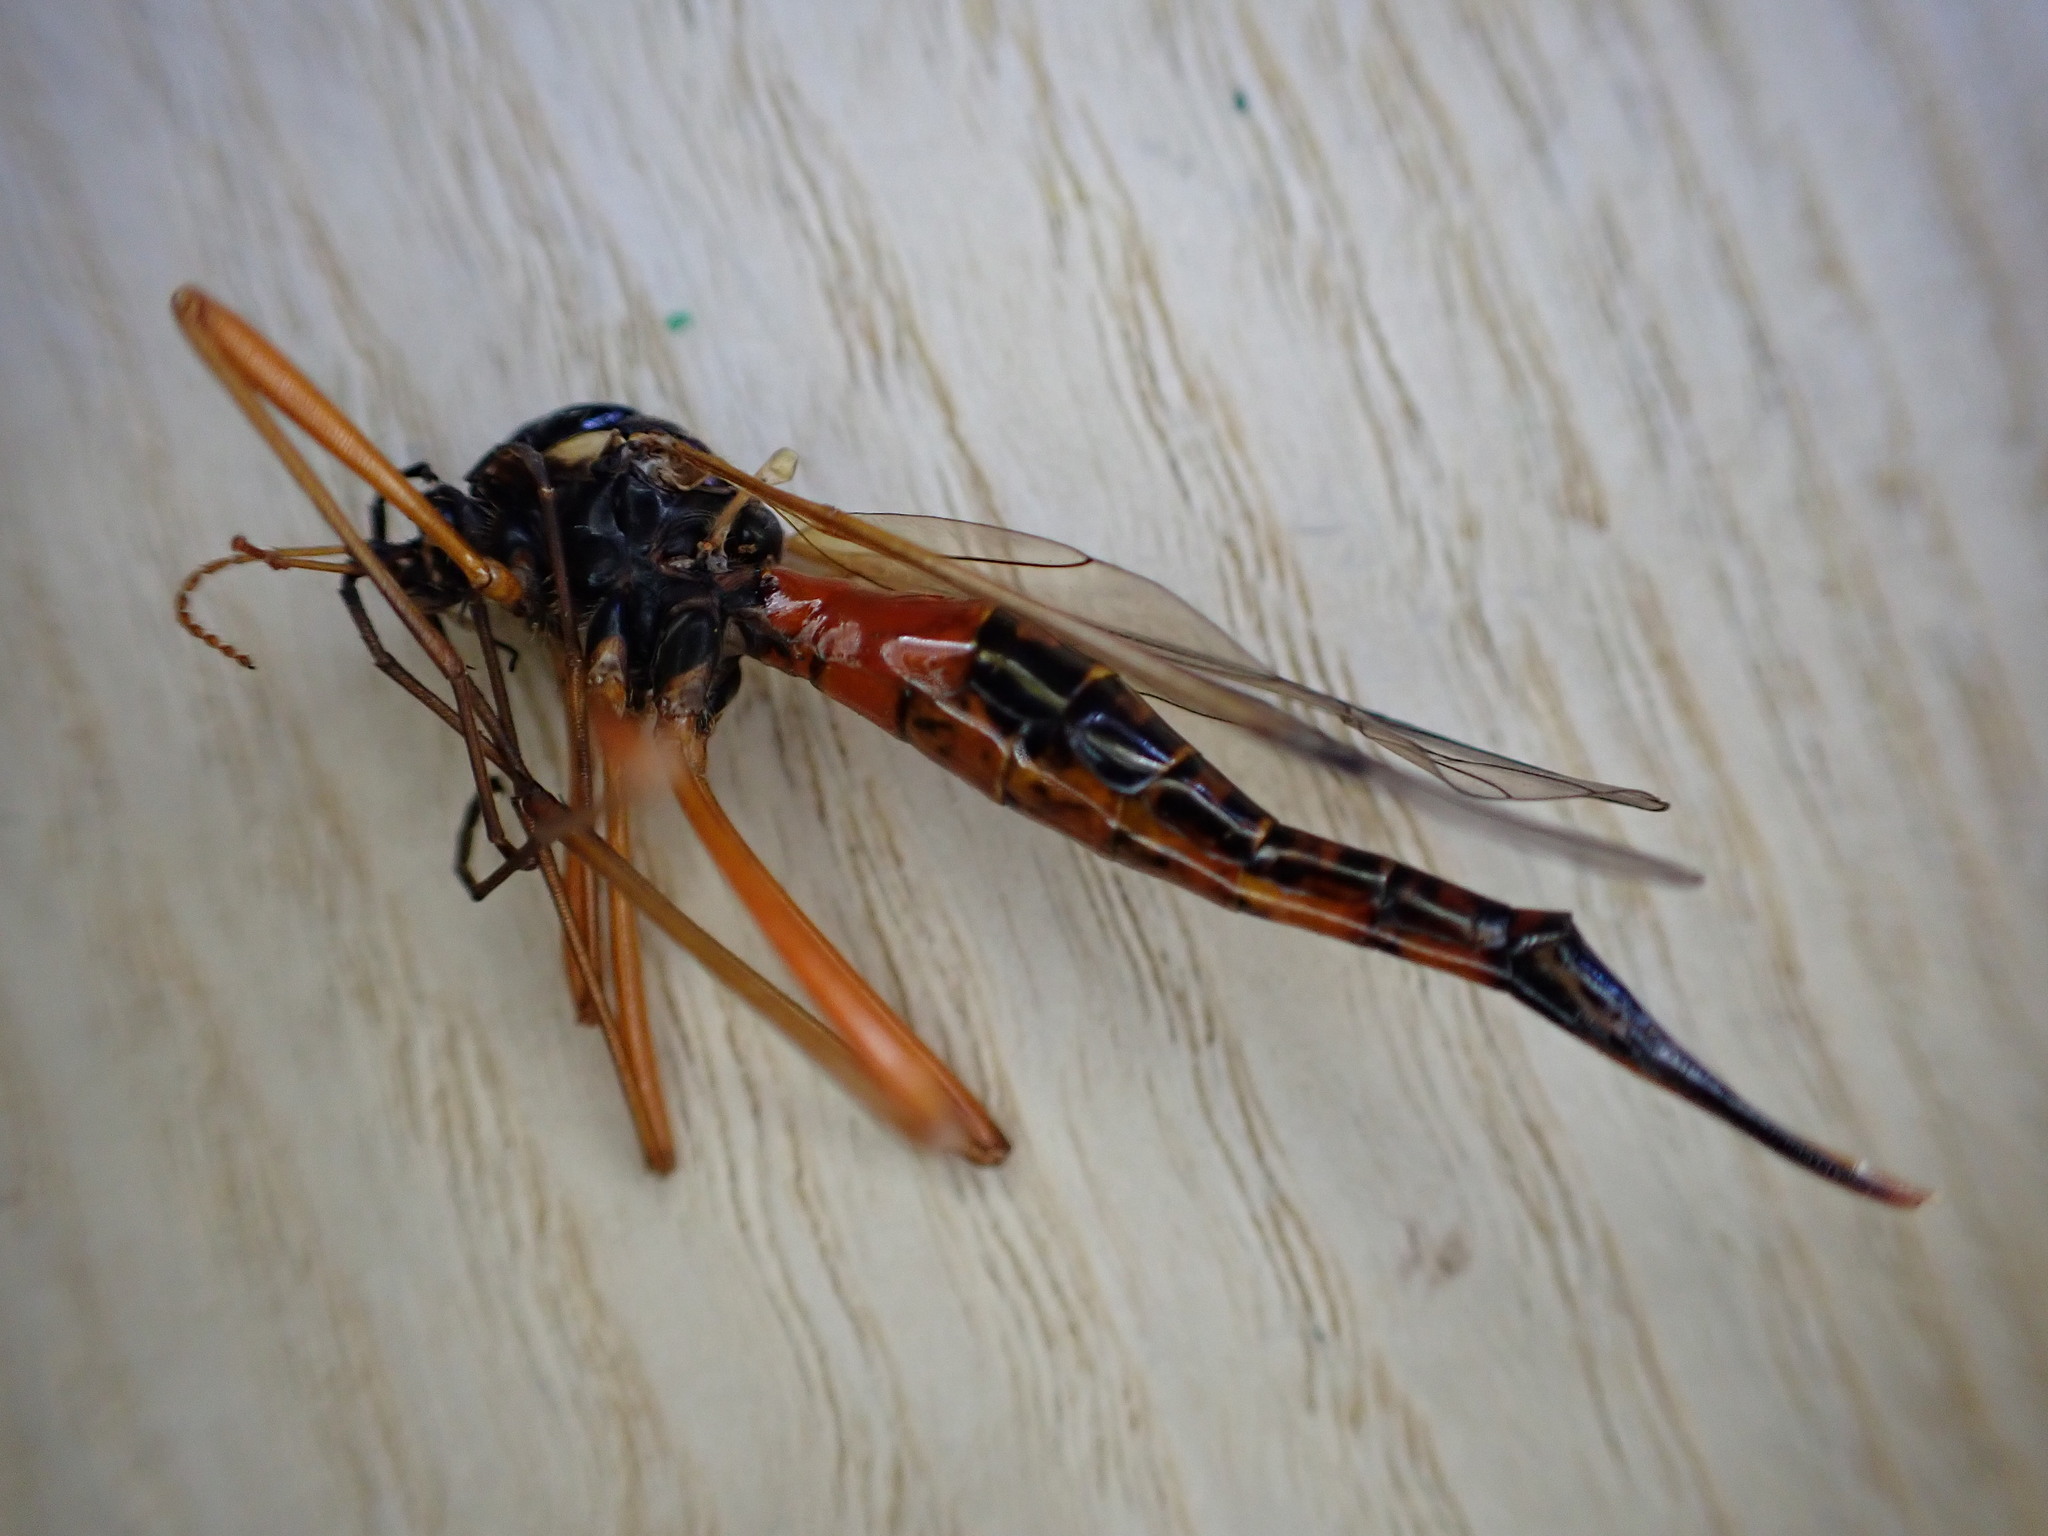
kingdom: Animalia
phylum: Arthropoda
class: Insecta
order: Diptera
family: Tipulidae
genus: Tanyptera
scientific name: Tanyptera atrata
